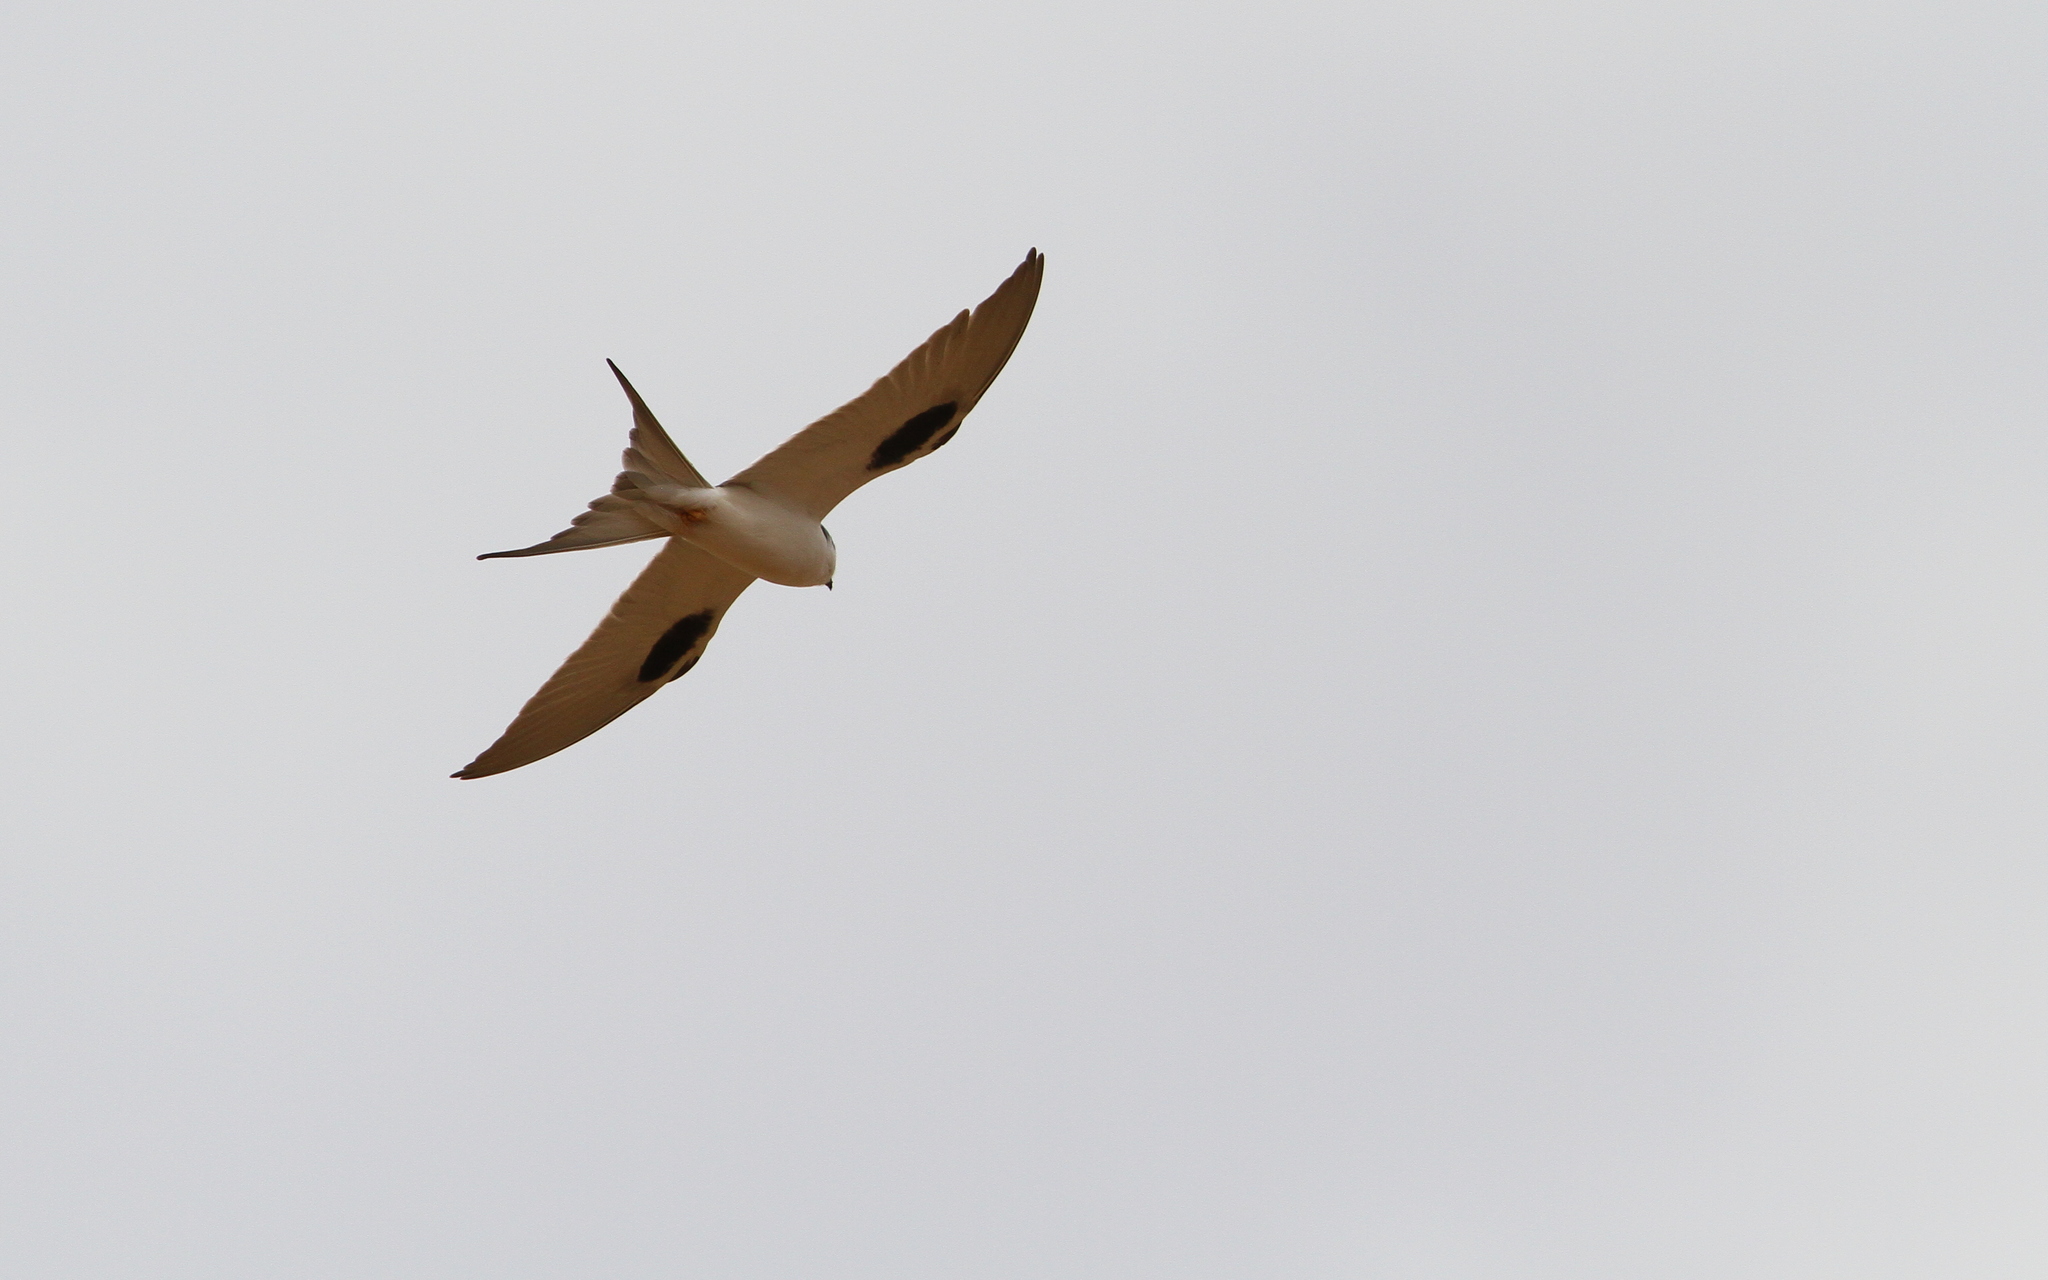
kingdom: Animalia
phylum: Chordata
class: Aves
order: Accipitriformes
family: Accipitridae
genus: Chelictinia
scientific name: Chelictinia riocourii
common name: Scissor-tailed kite
